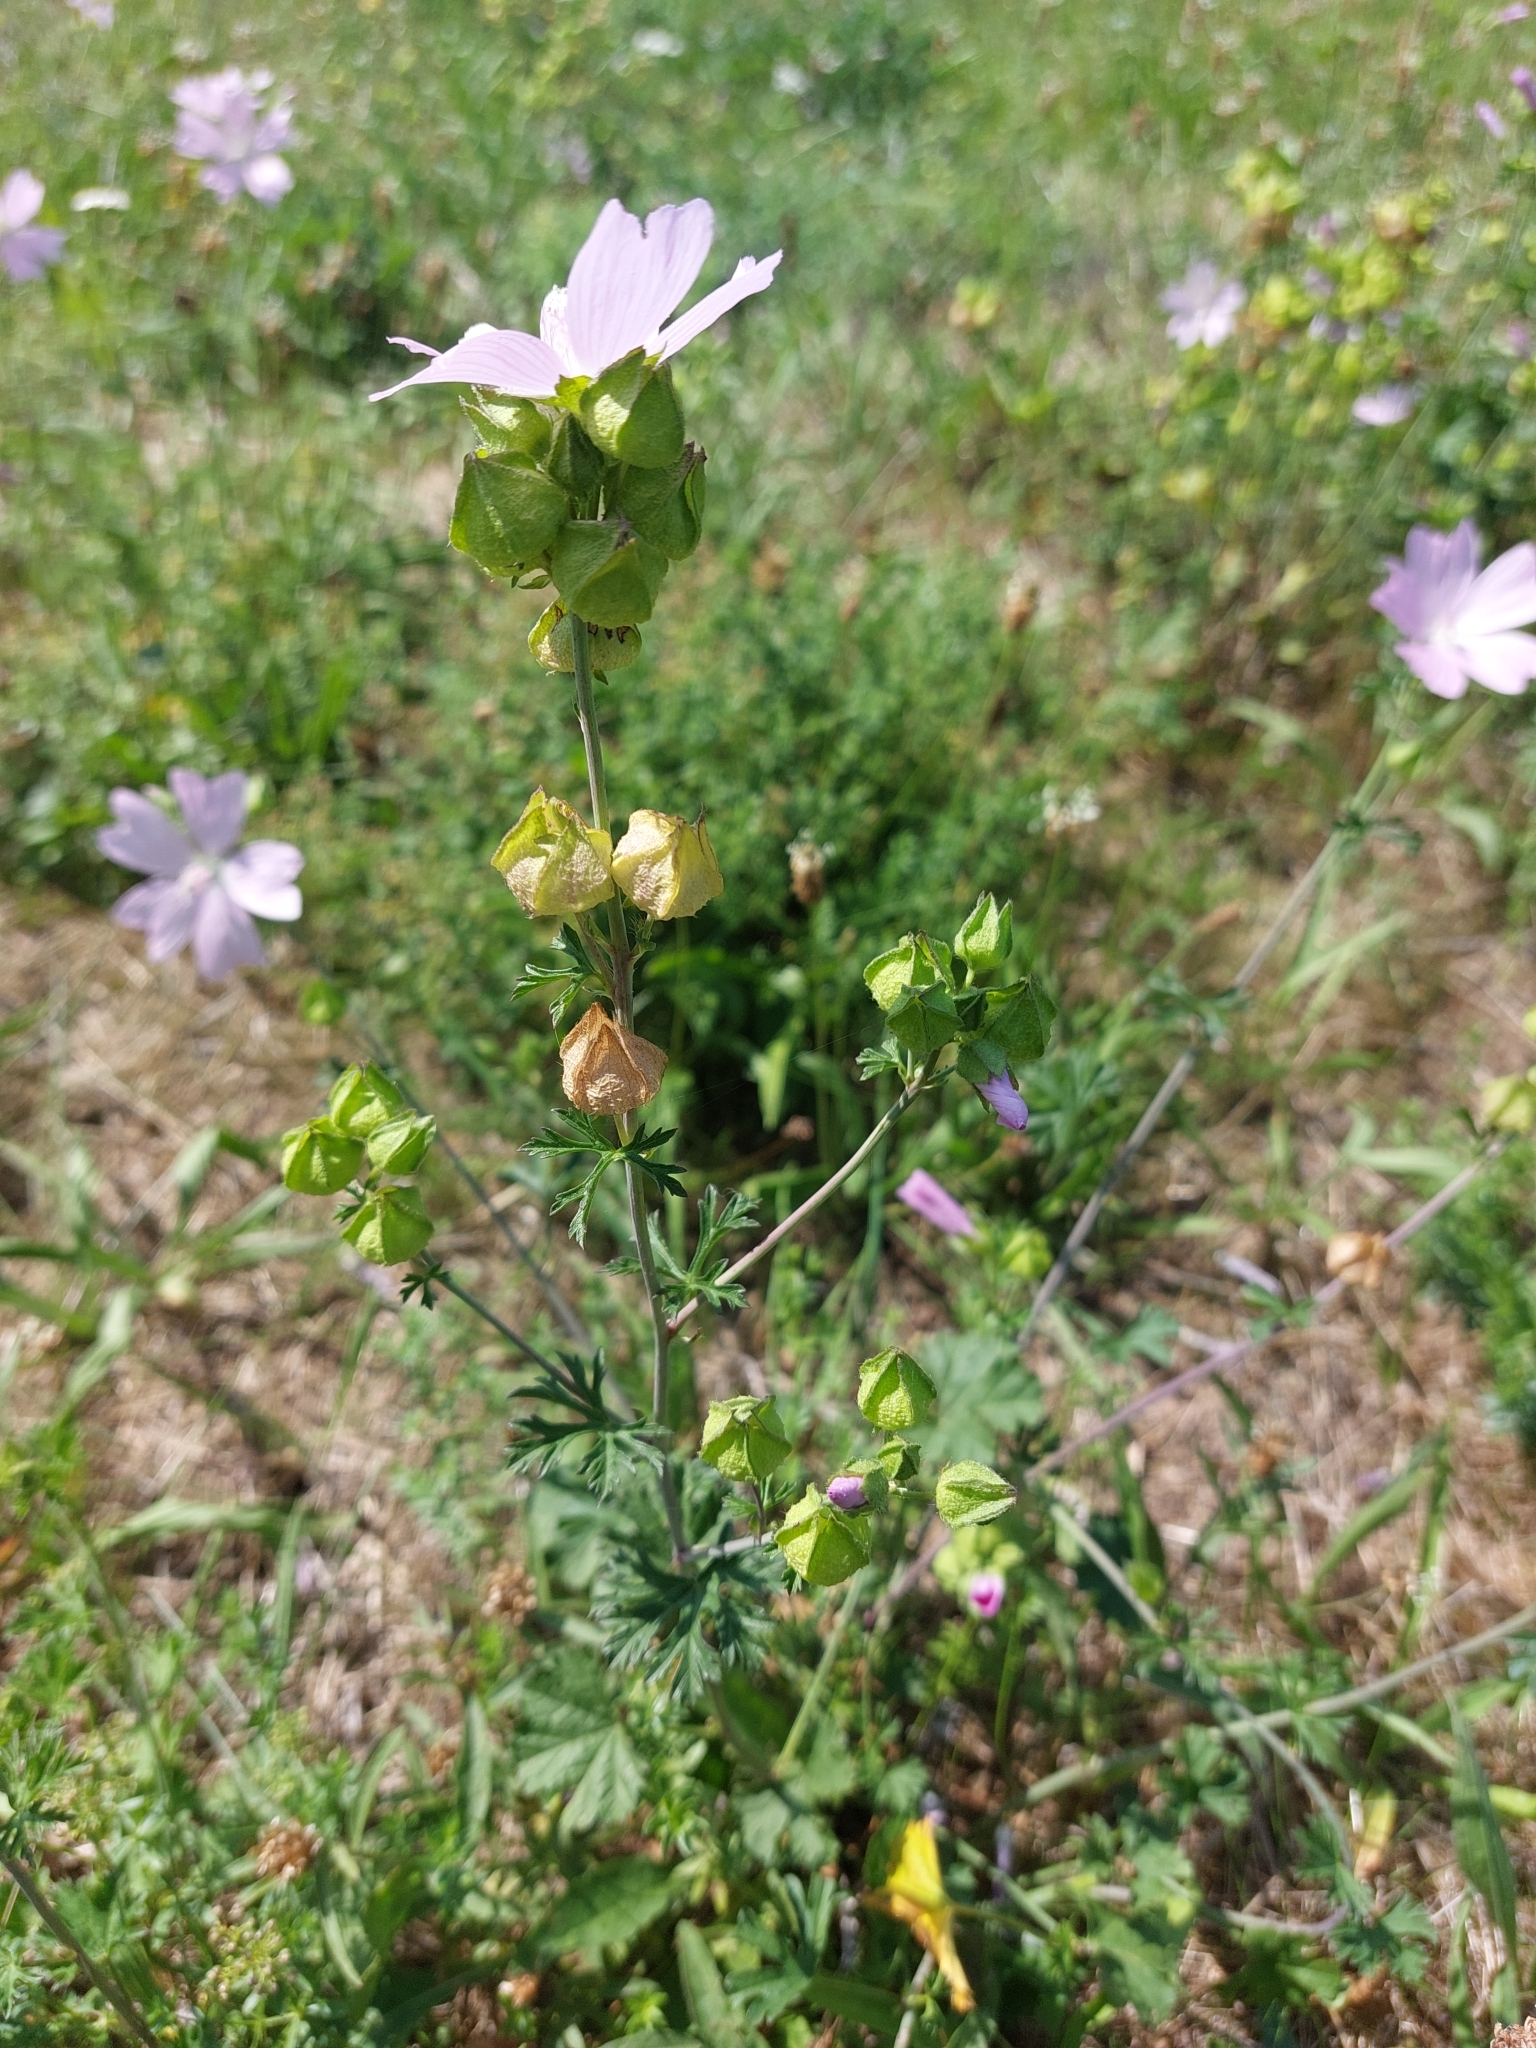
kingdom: Plantae
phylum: Tracheophyta
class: Magnoliopsida
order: Malvales
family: Malvaceae
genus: Malva
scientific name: Malva moschata
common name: Musk mallow
